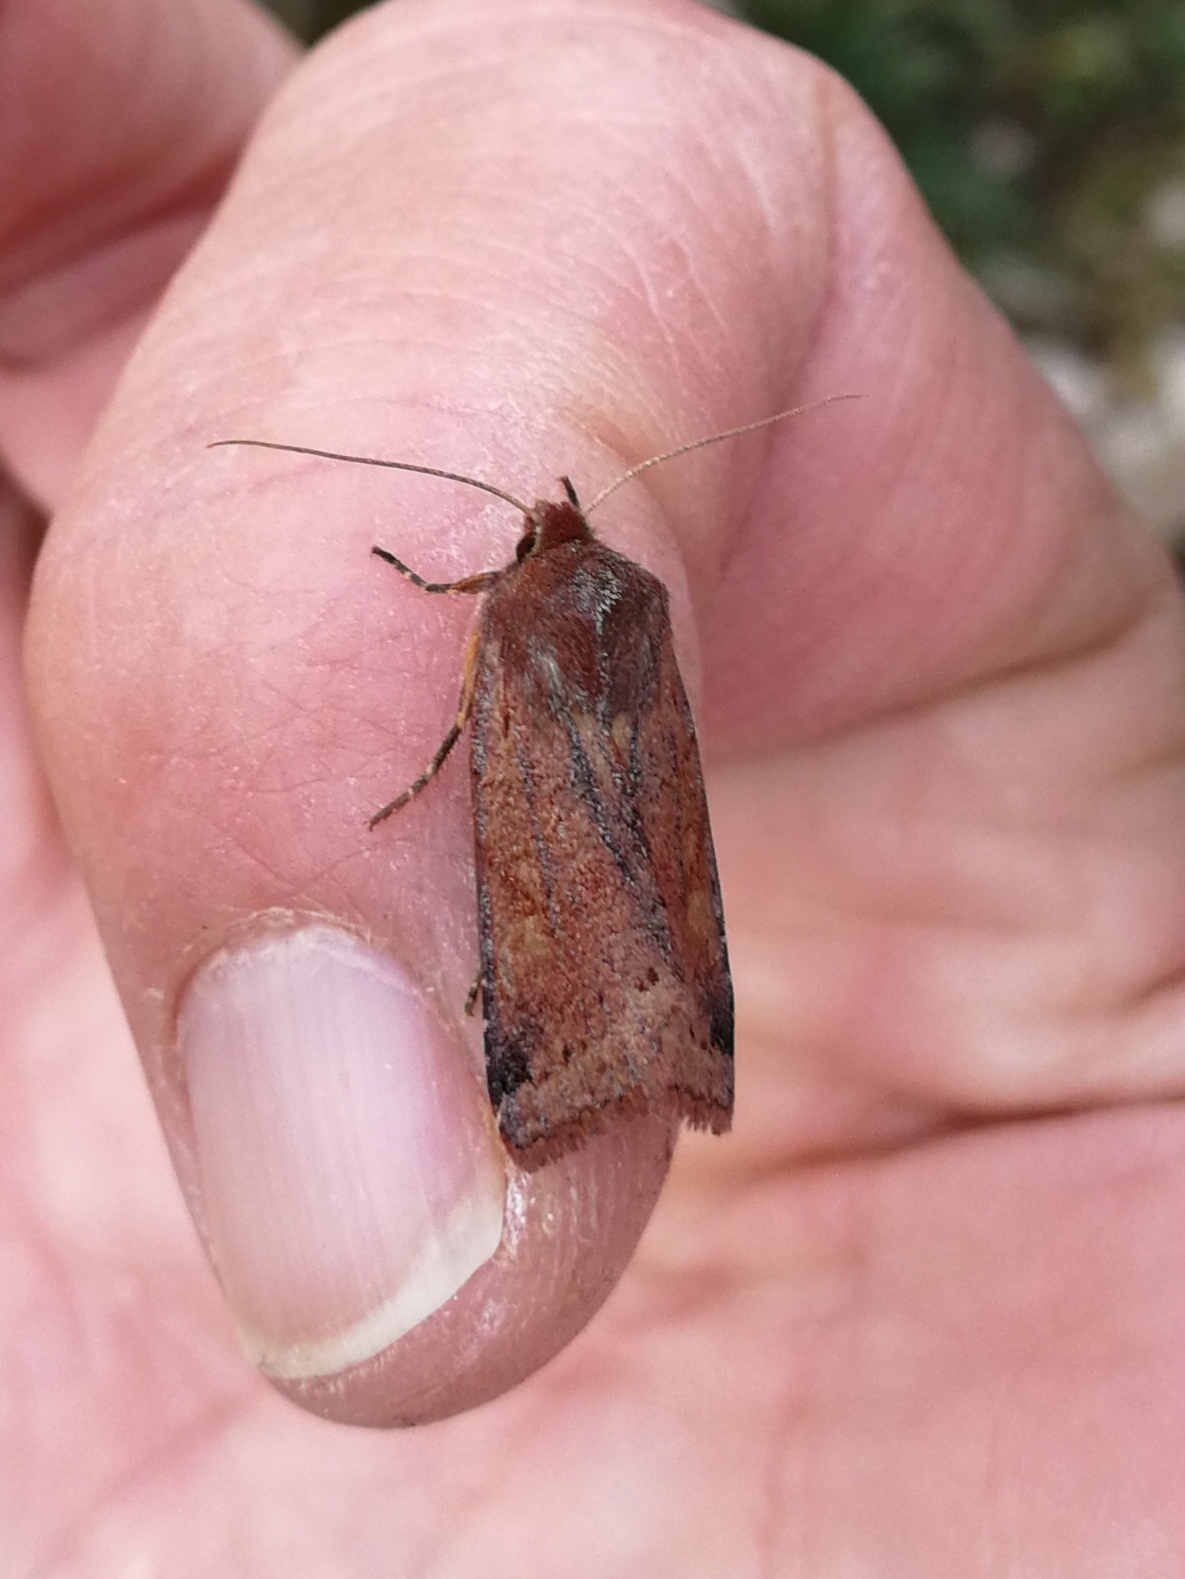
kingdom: Animalia
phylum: Arthropoda
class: Insecta
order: Lepidoptera
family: Noctuidae
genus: Agrochola
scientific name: Agrochola haematidea
